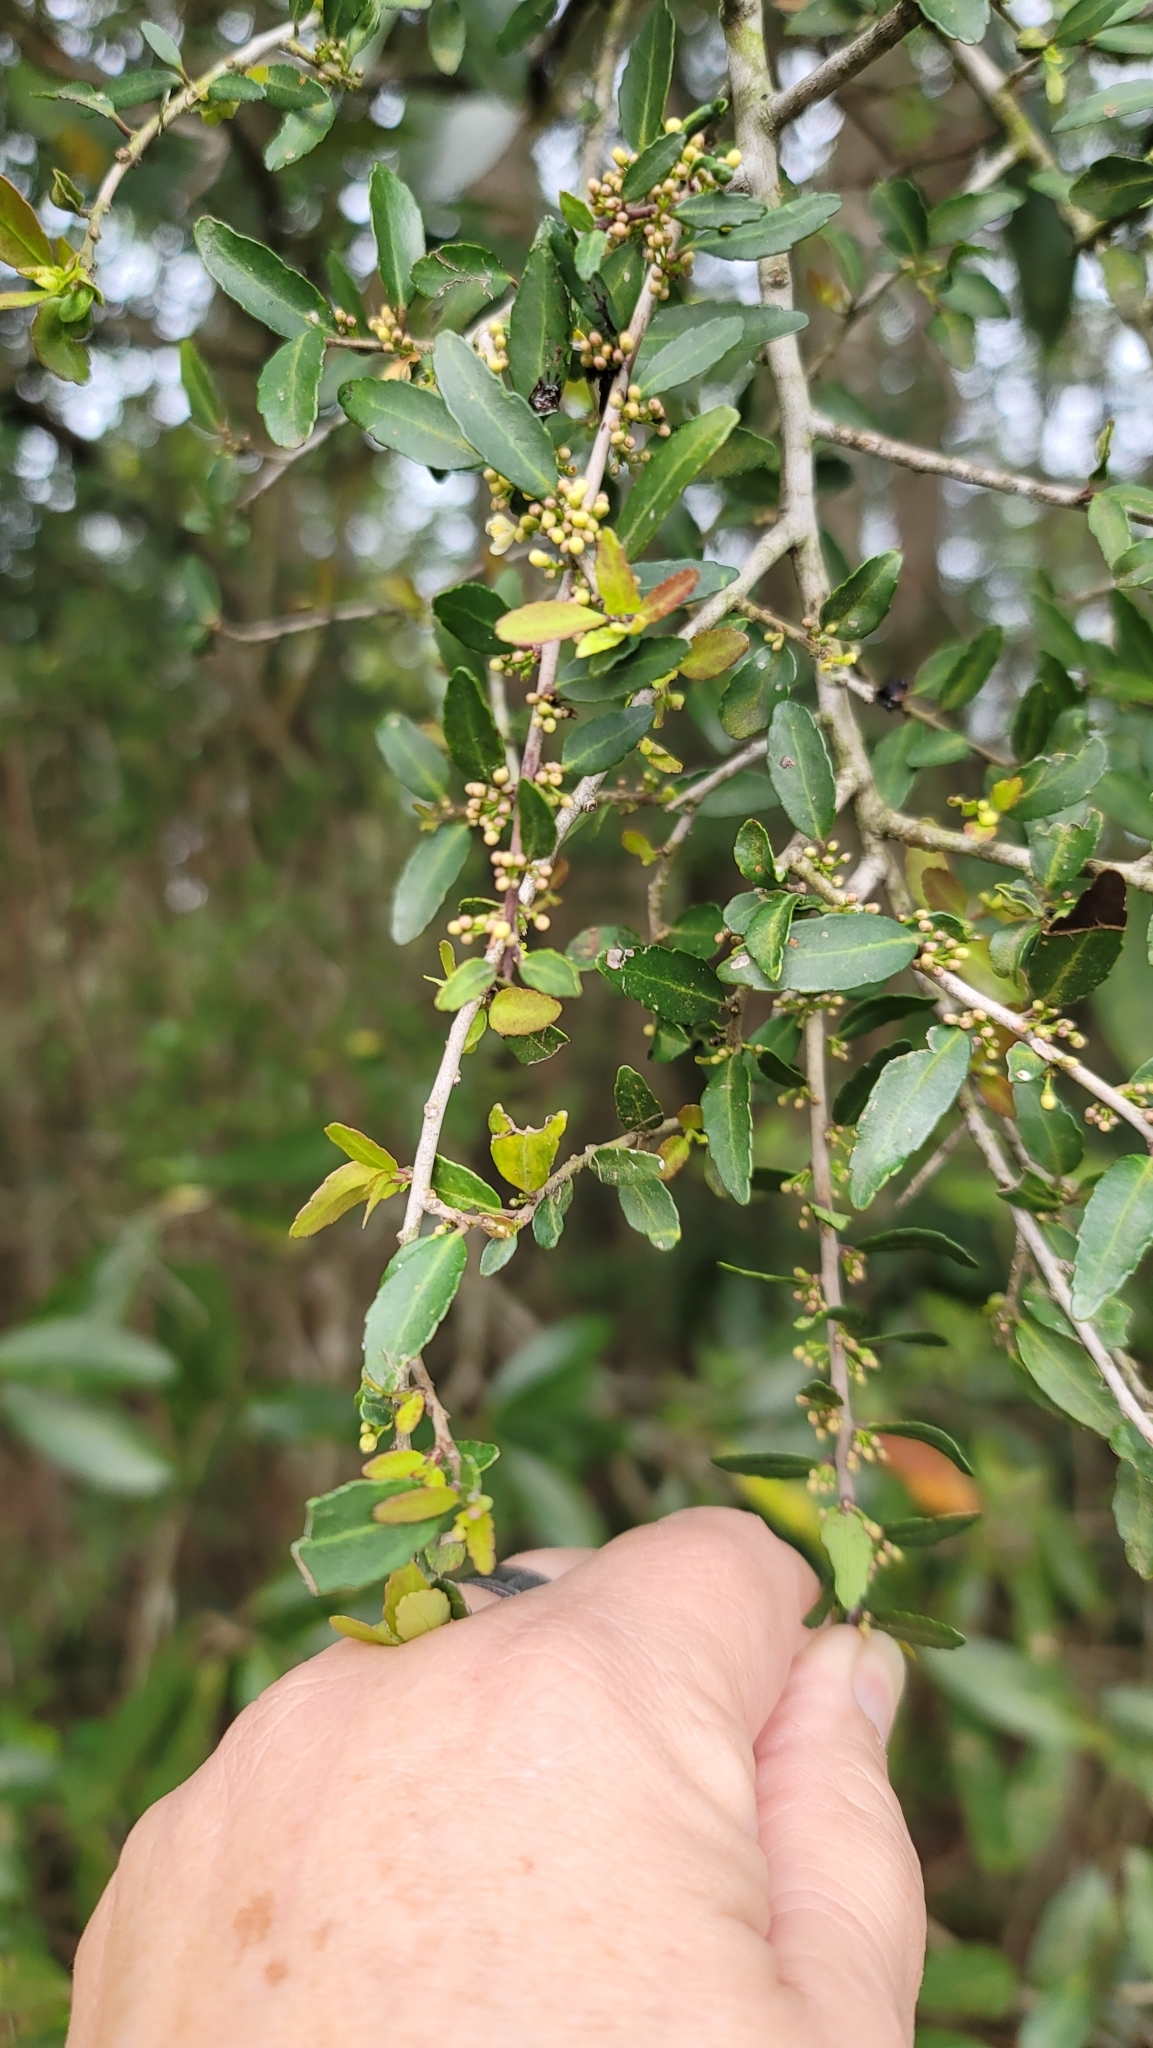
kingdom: Plantae
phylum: Tracheophyta
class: Magnoliopsida
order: Aquifoliales
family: Aquifoliaceae
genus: Ilex
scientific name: Ilex vomitoria
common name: Yaupon holly
